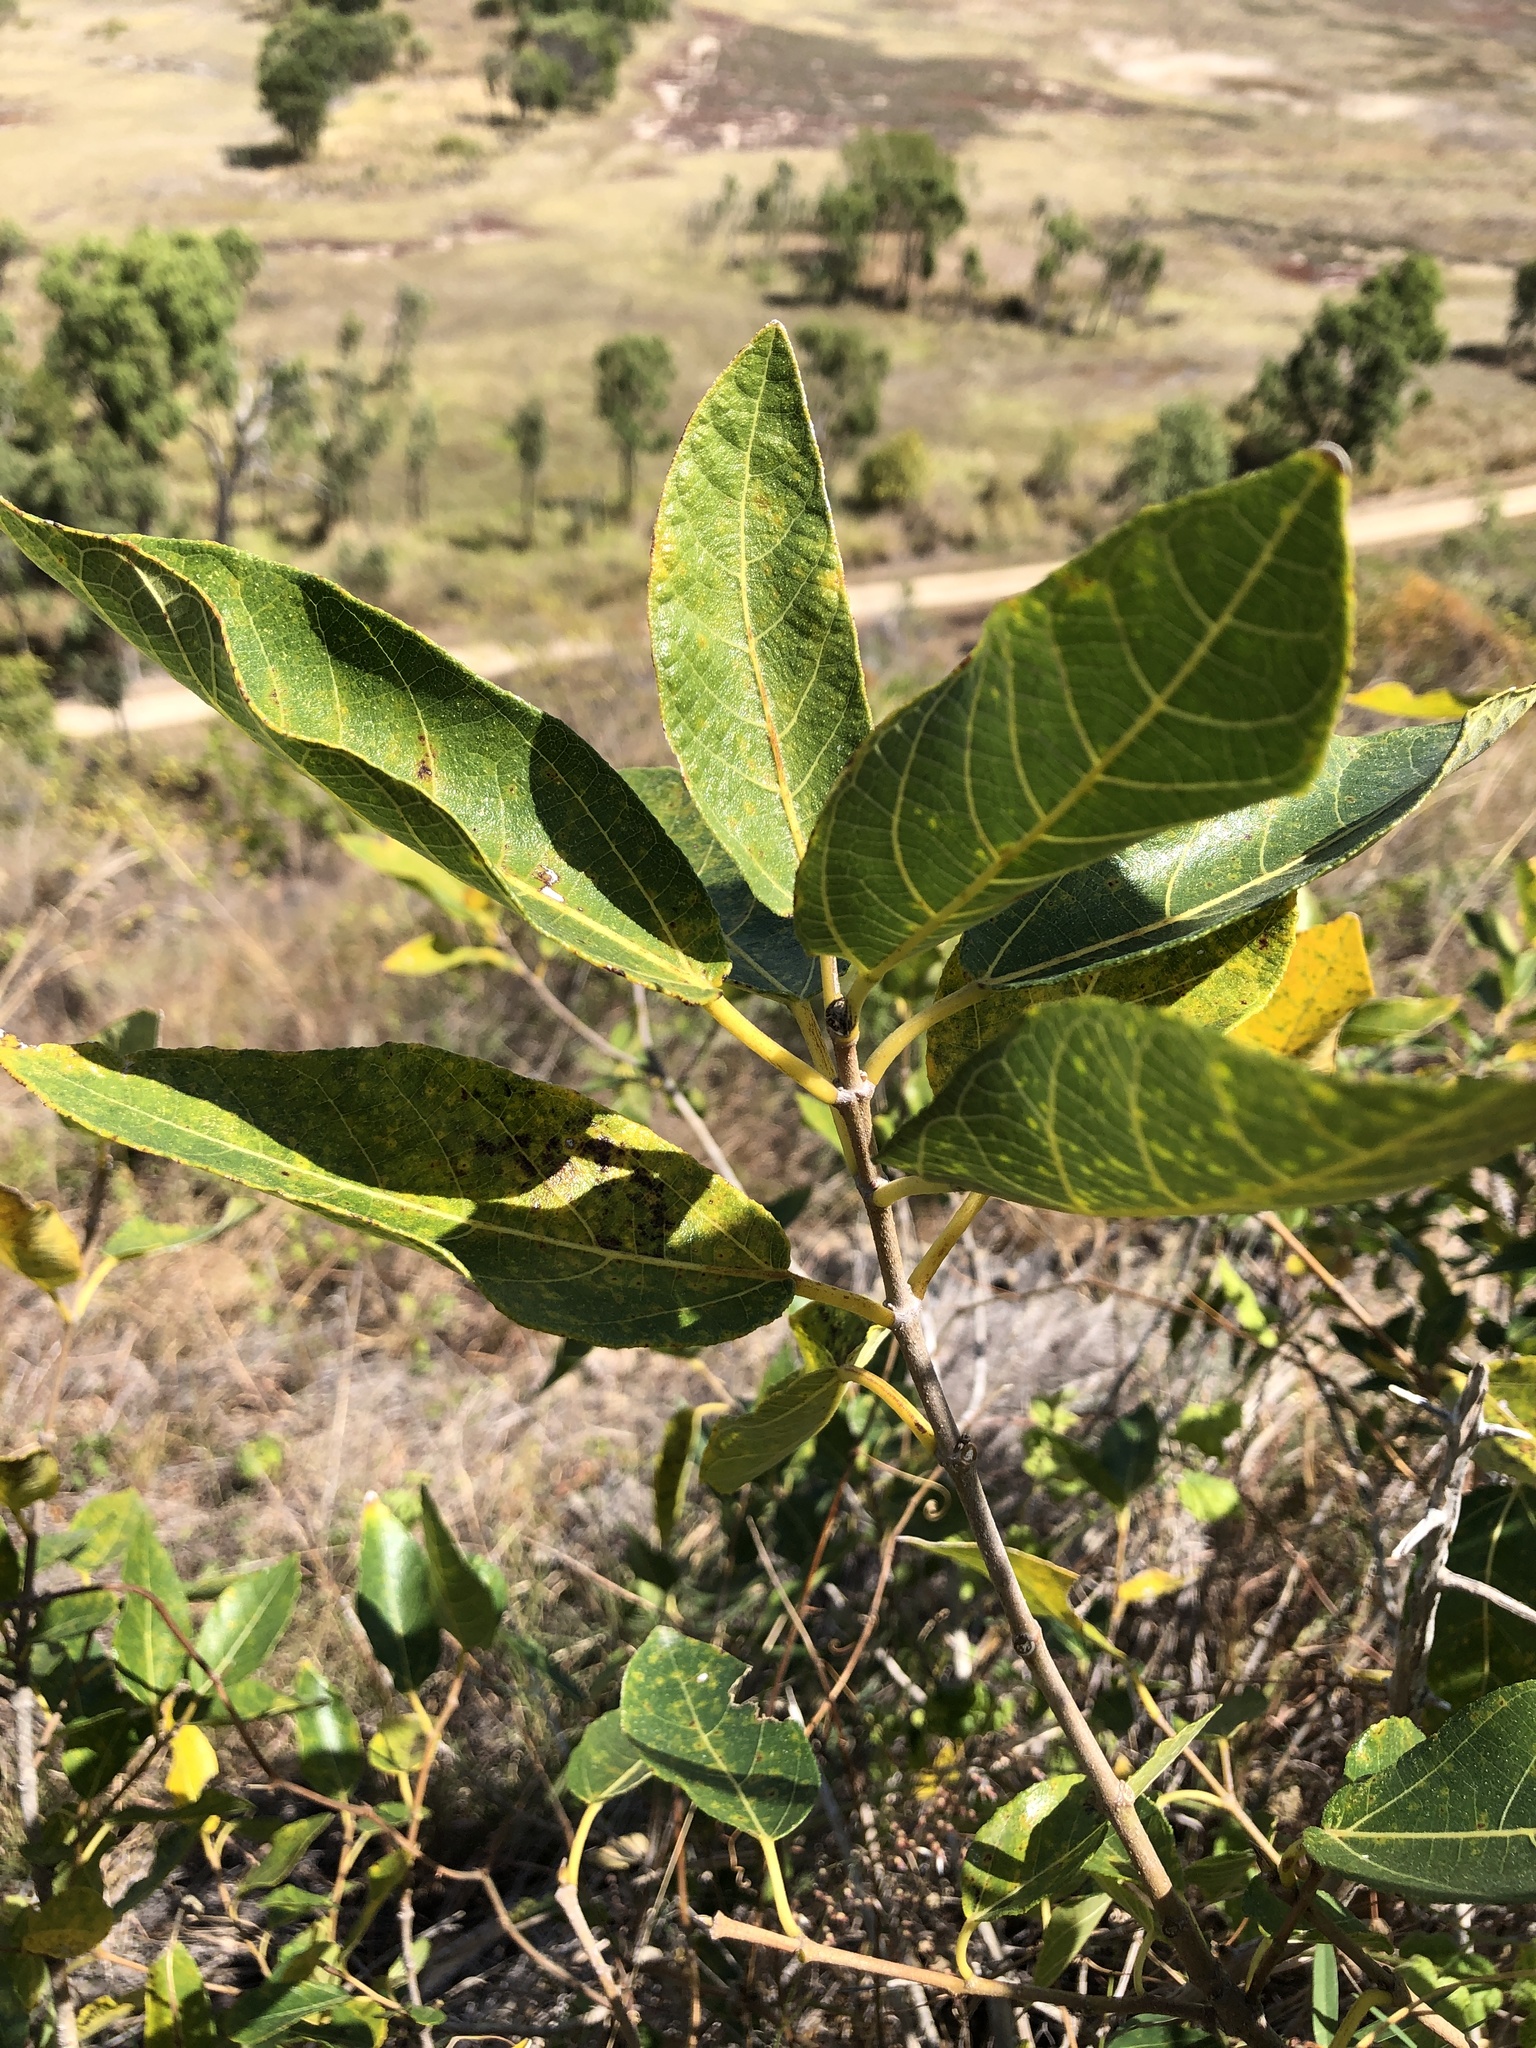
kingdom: Plantae
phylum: Tracheophyta
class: Magnoliopsida
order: Rosales
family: Moraceae
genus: Ficus
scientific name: Ficus opposita
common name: Figwood
